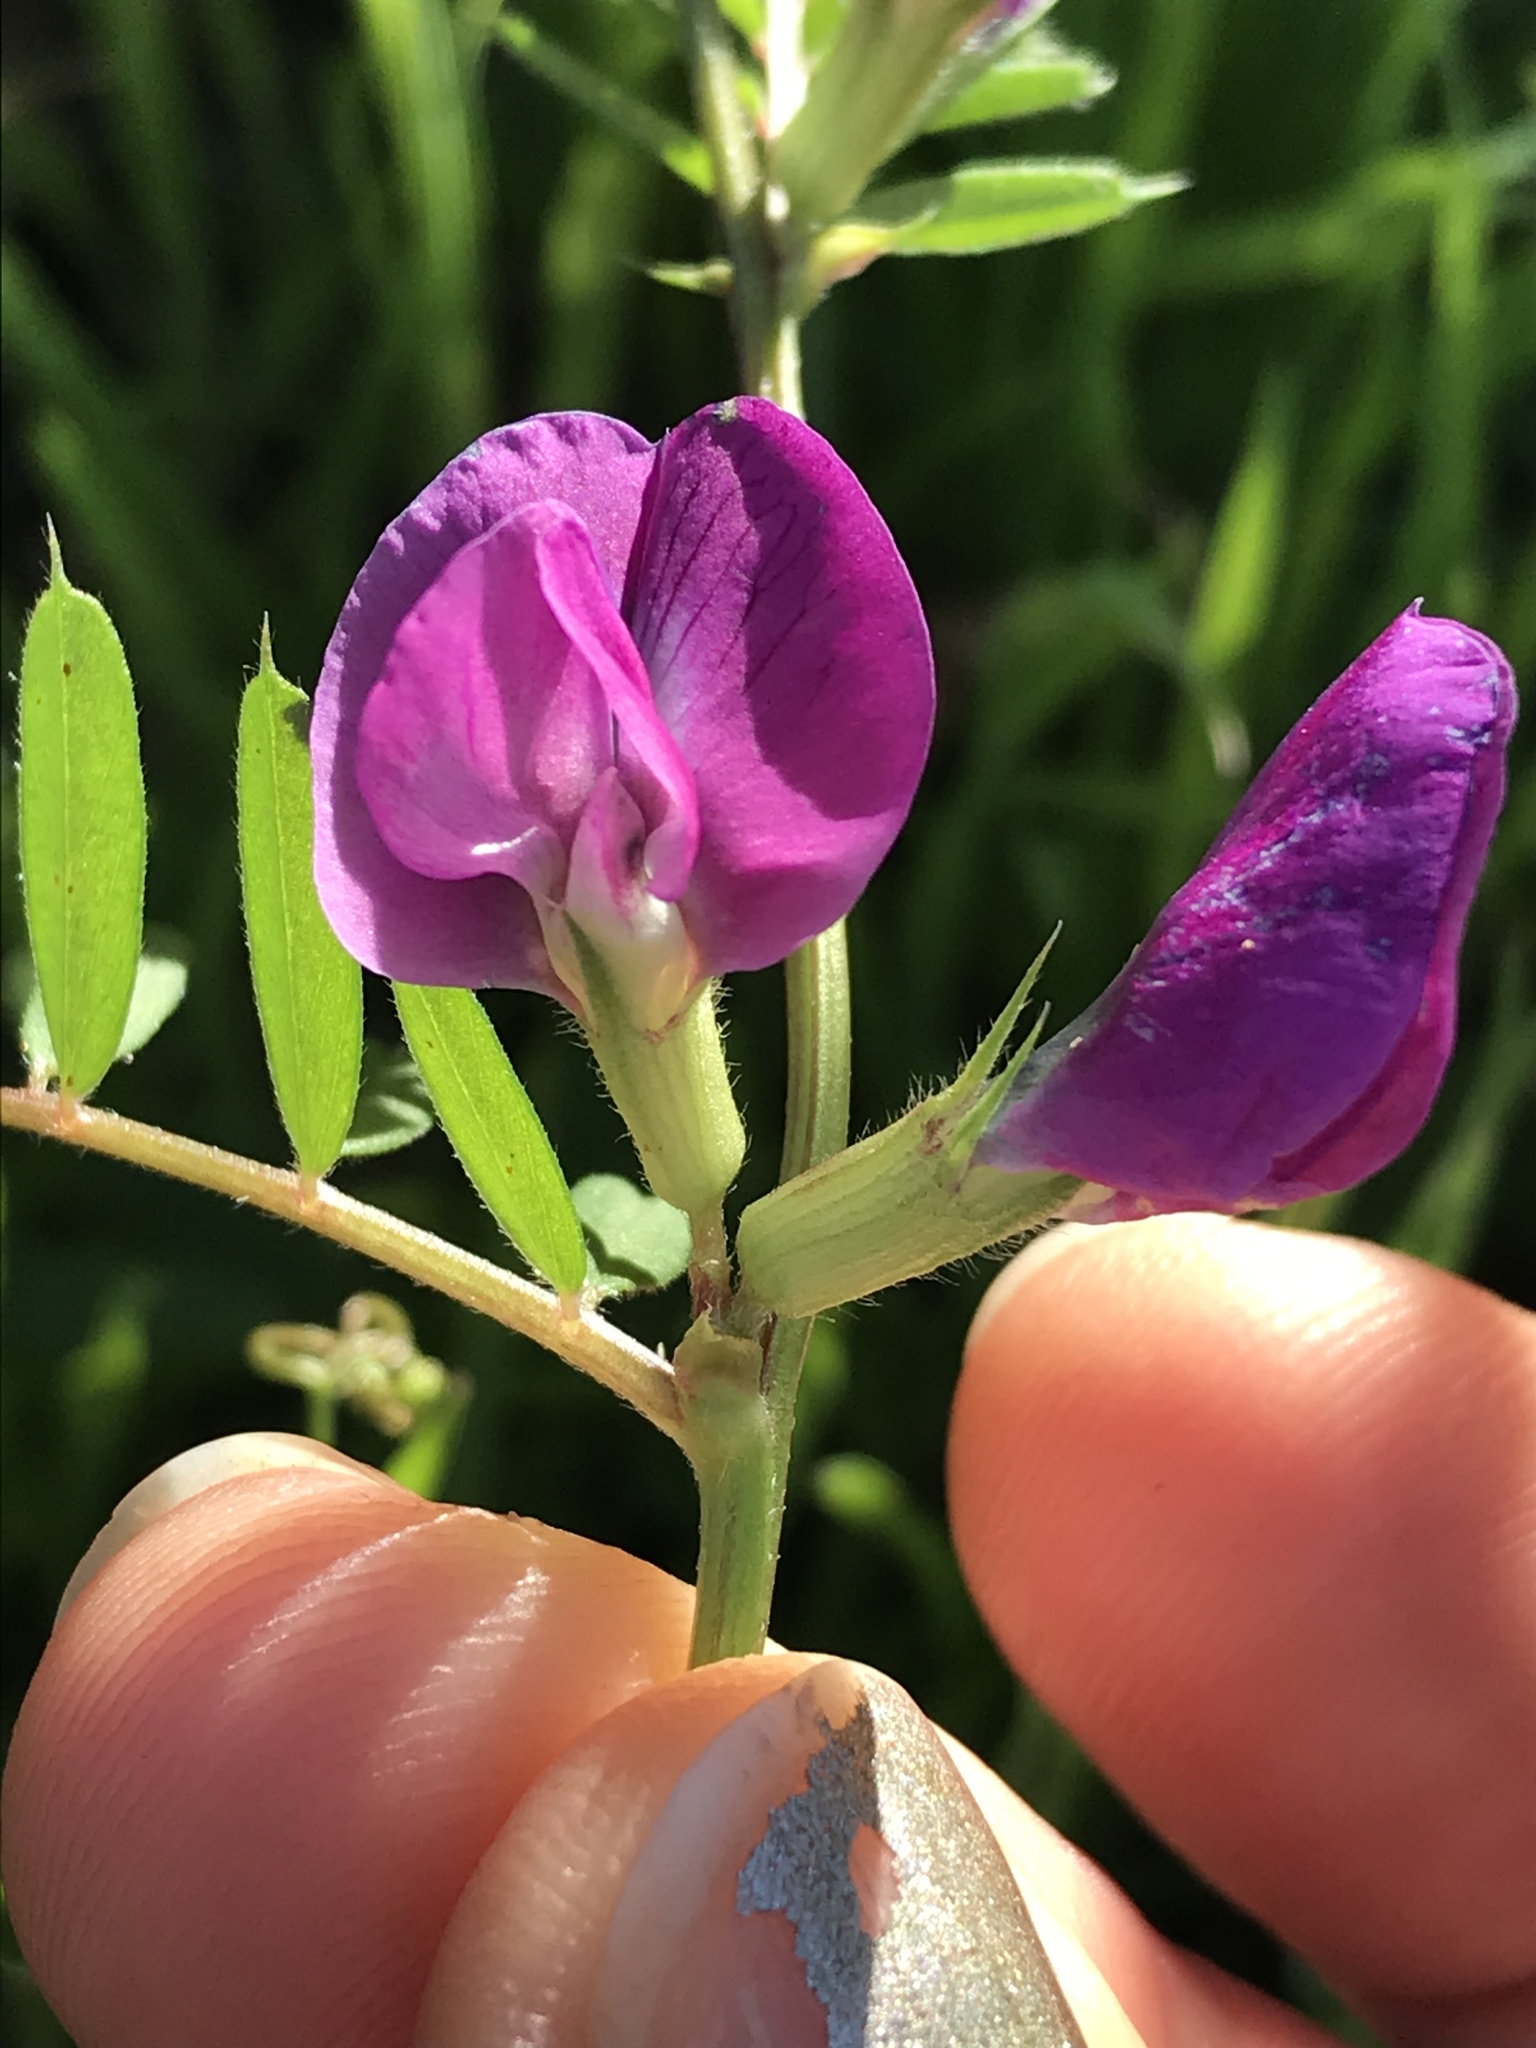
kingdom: Plantae
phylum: Tracheophyta
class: Magnoliopsida
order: Fabales
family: Fabaceae
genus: Vicia
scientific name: Vicia sativa
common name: Garden vetch
